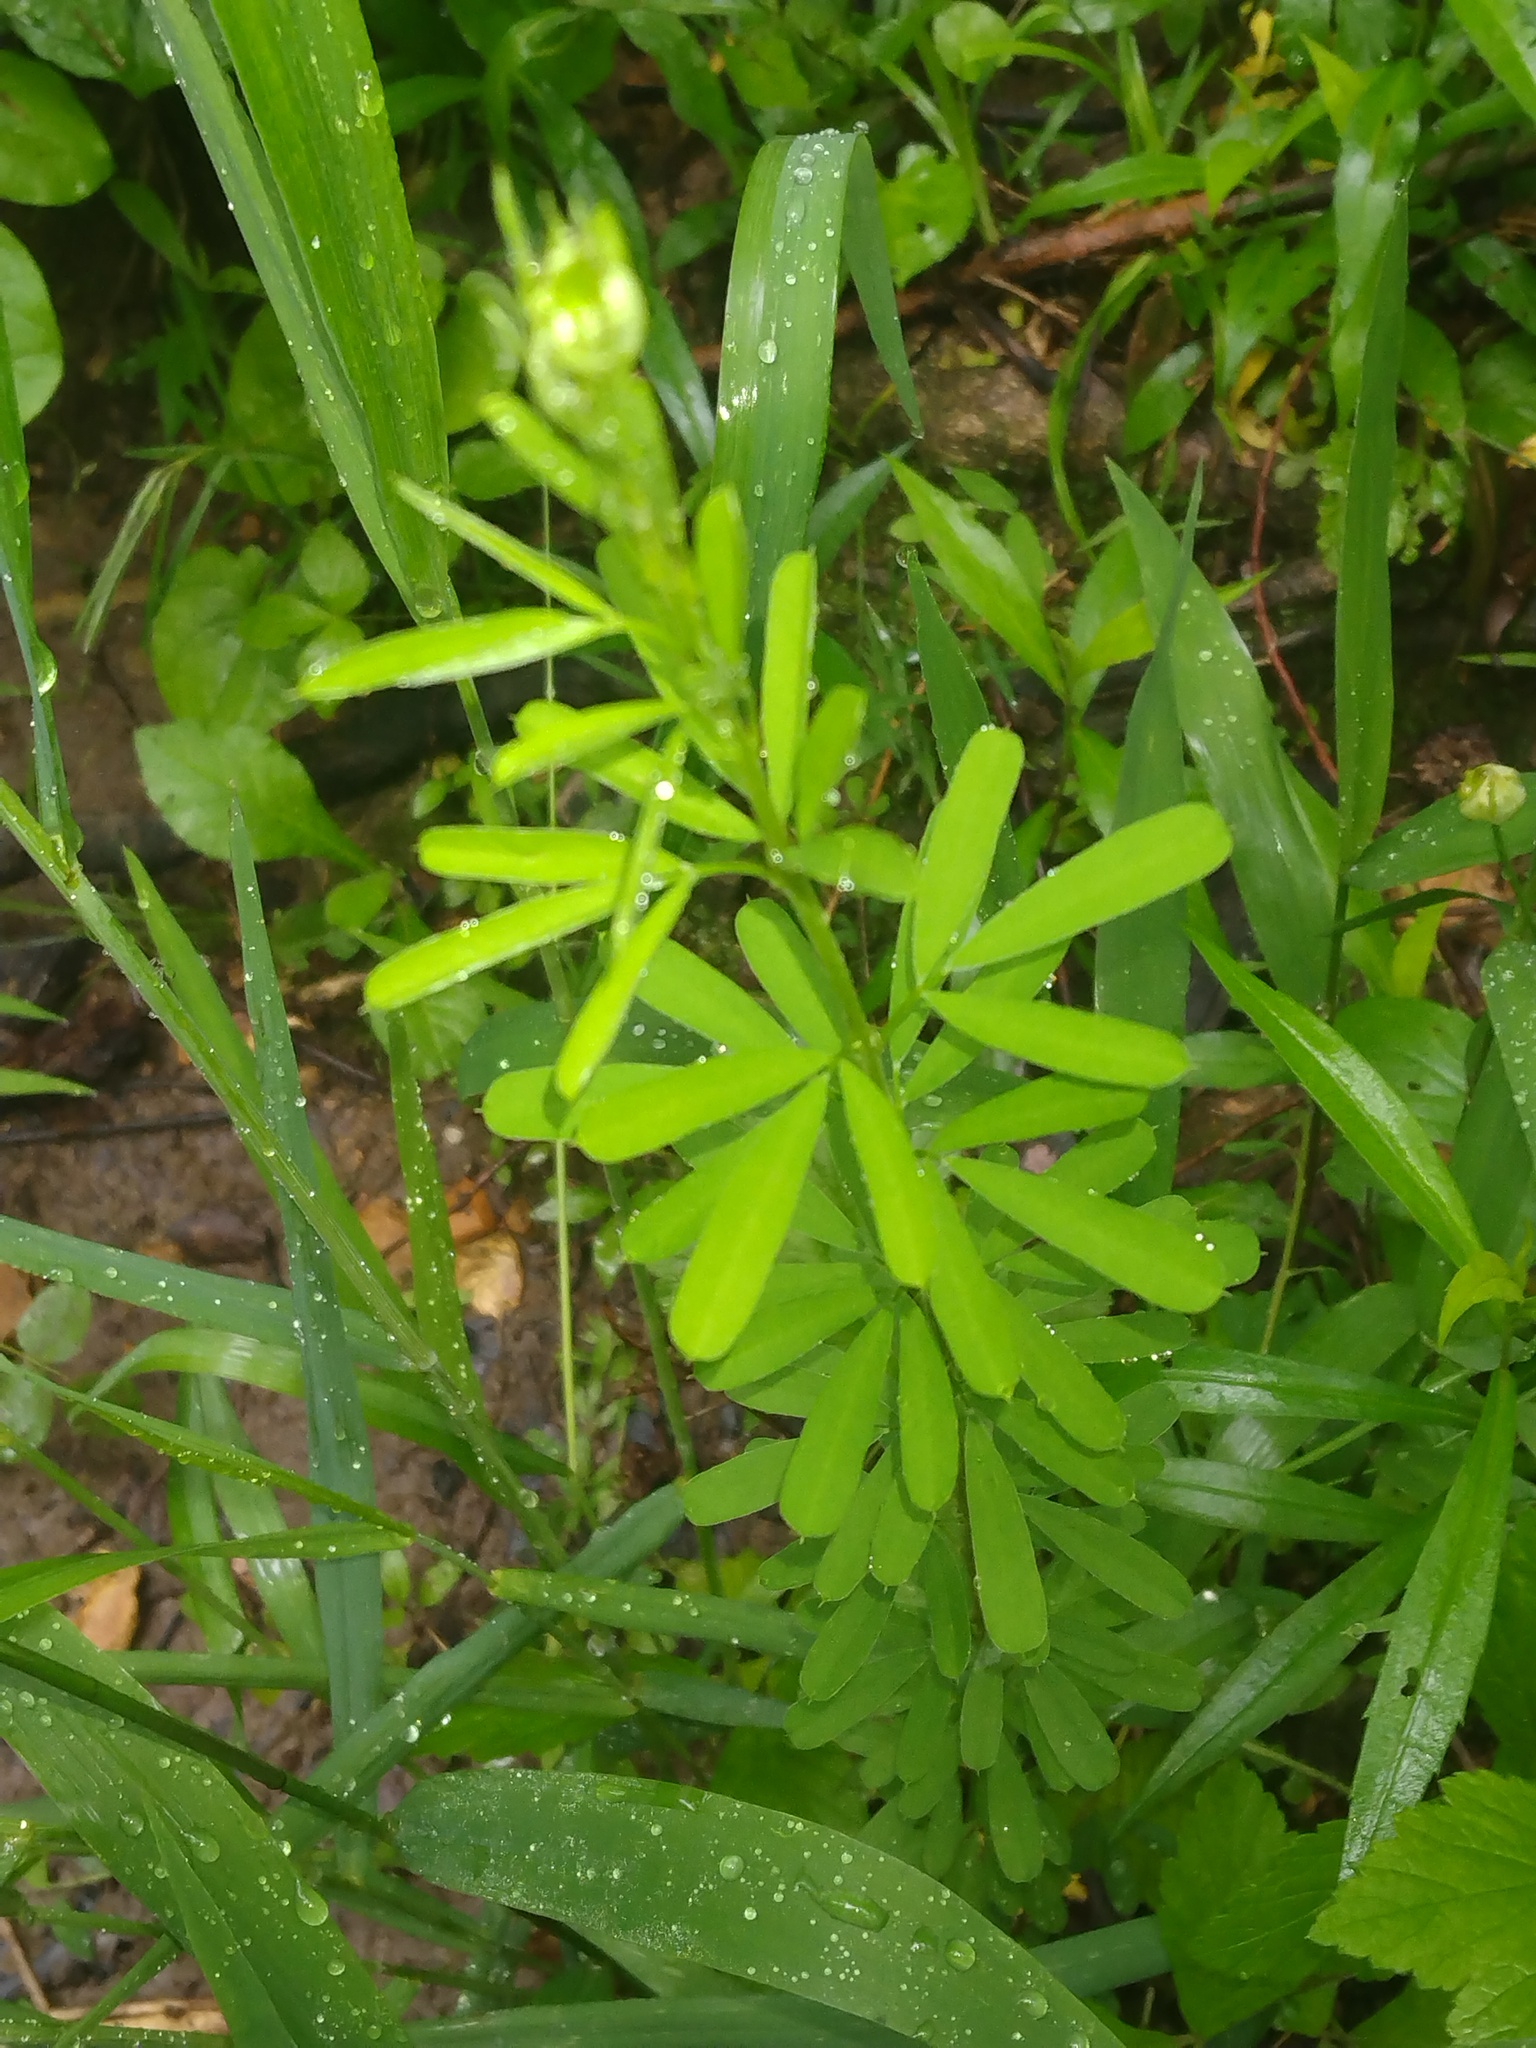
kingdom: Plantae
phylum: Tracheophyta
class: Magnoliopsida
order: Fabales
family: Fabaceae
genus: Lespedeza
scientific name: Lespedeza cuneata
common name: Chinese bush-clover
